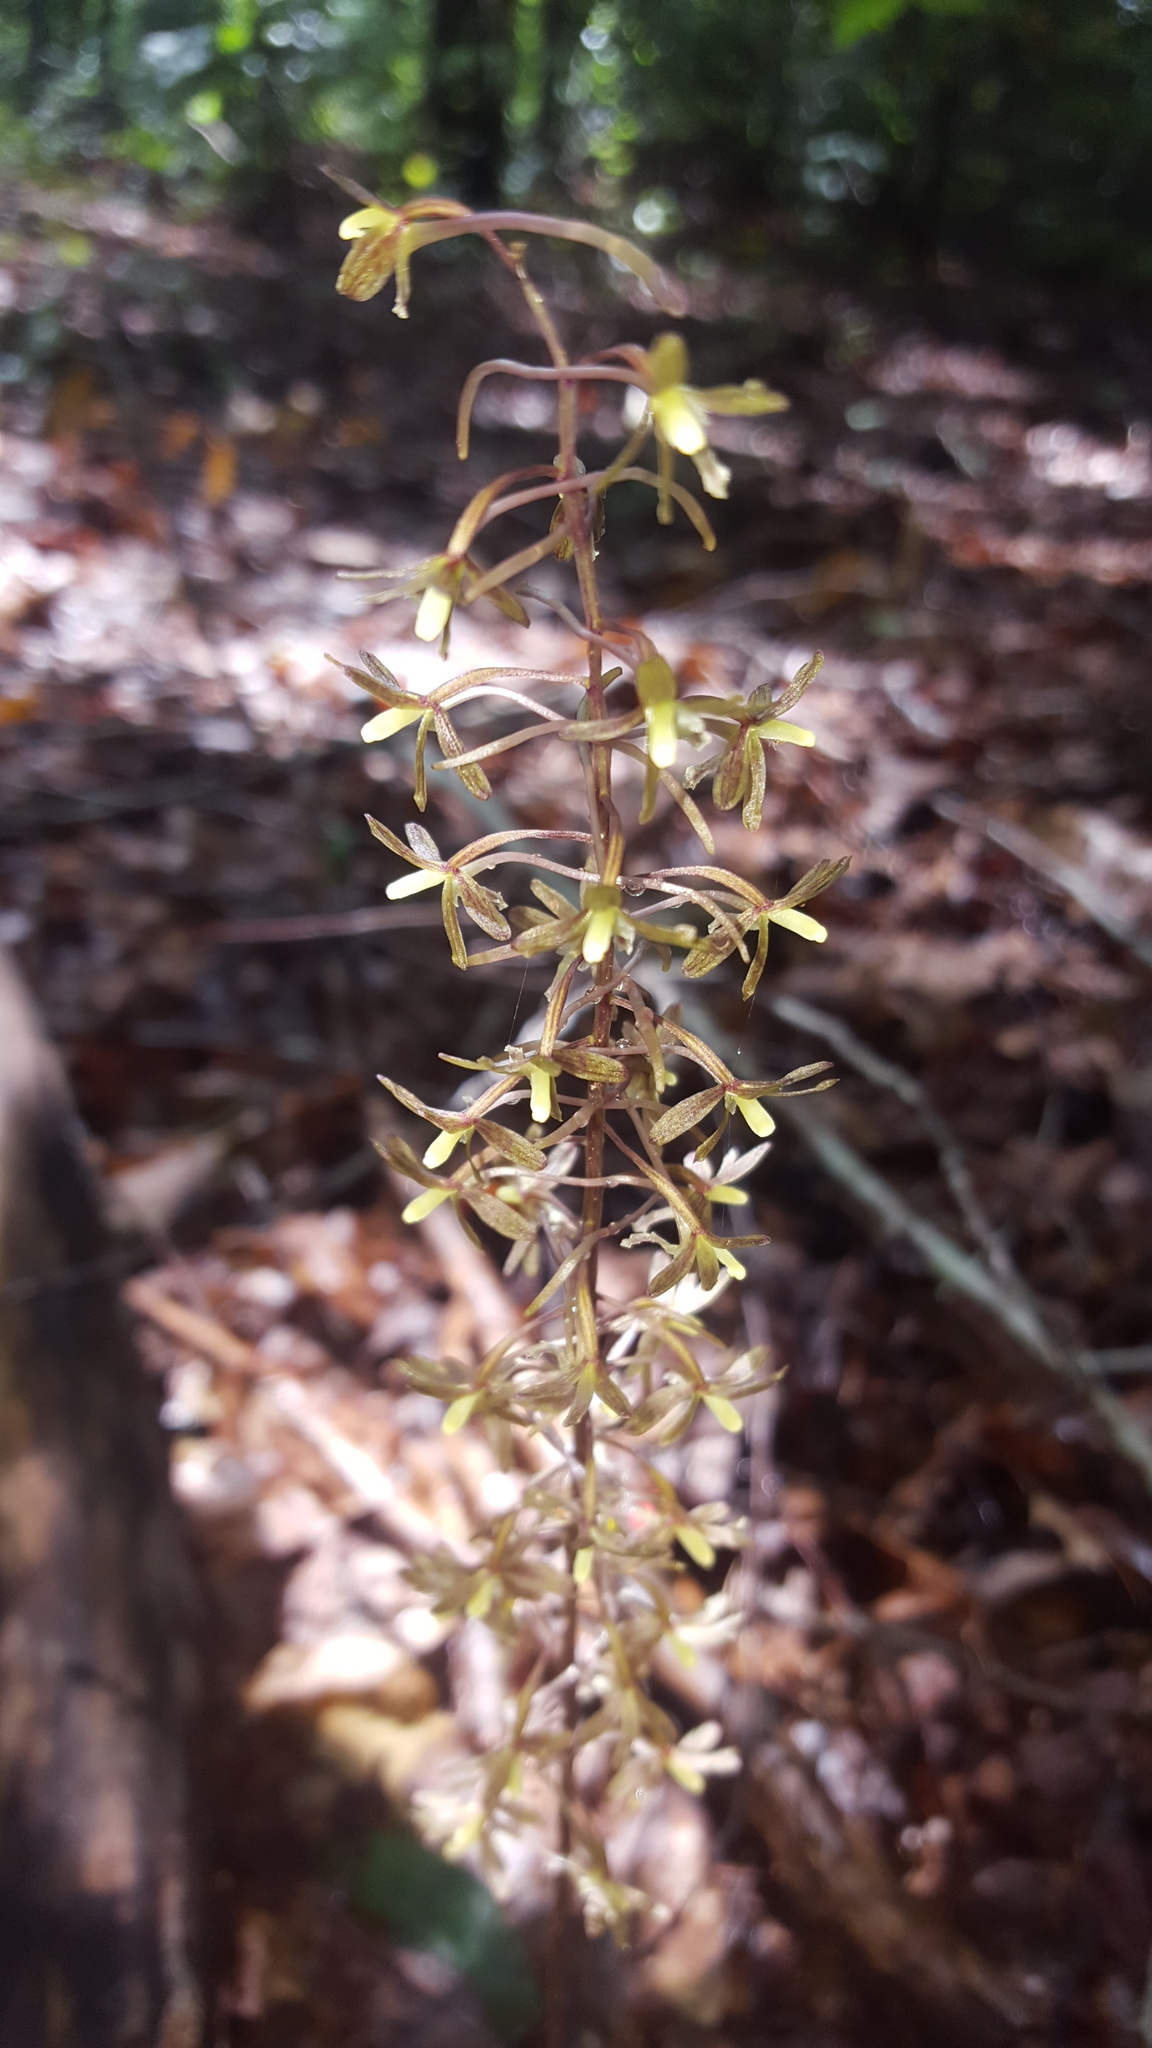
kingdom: Plantae
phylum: Tracheophyta
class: Liliopsida
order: Asparagales
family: Orchidaceae
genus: Tipularia
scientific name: Tipularia discolor
